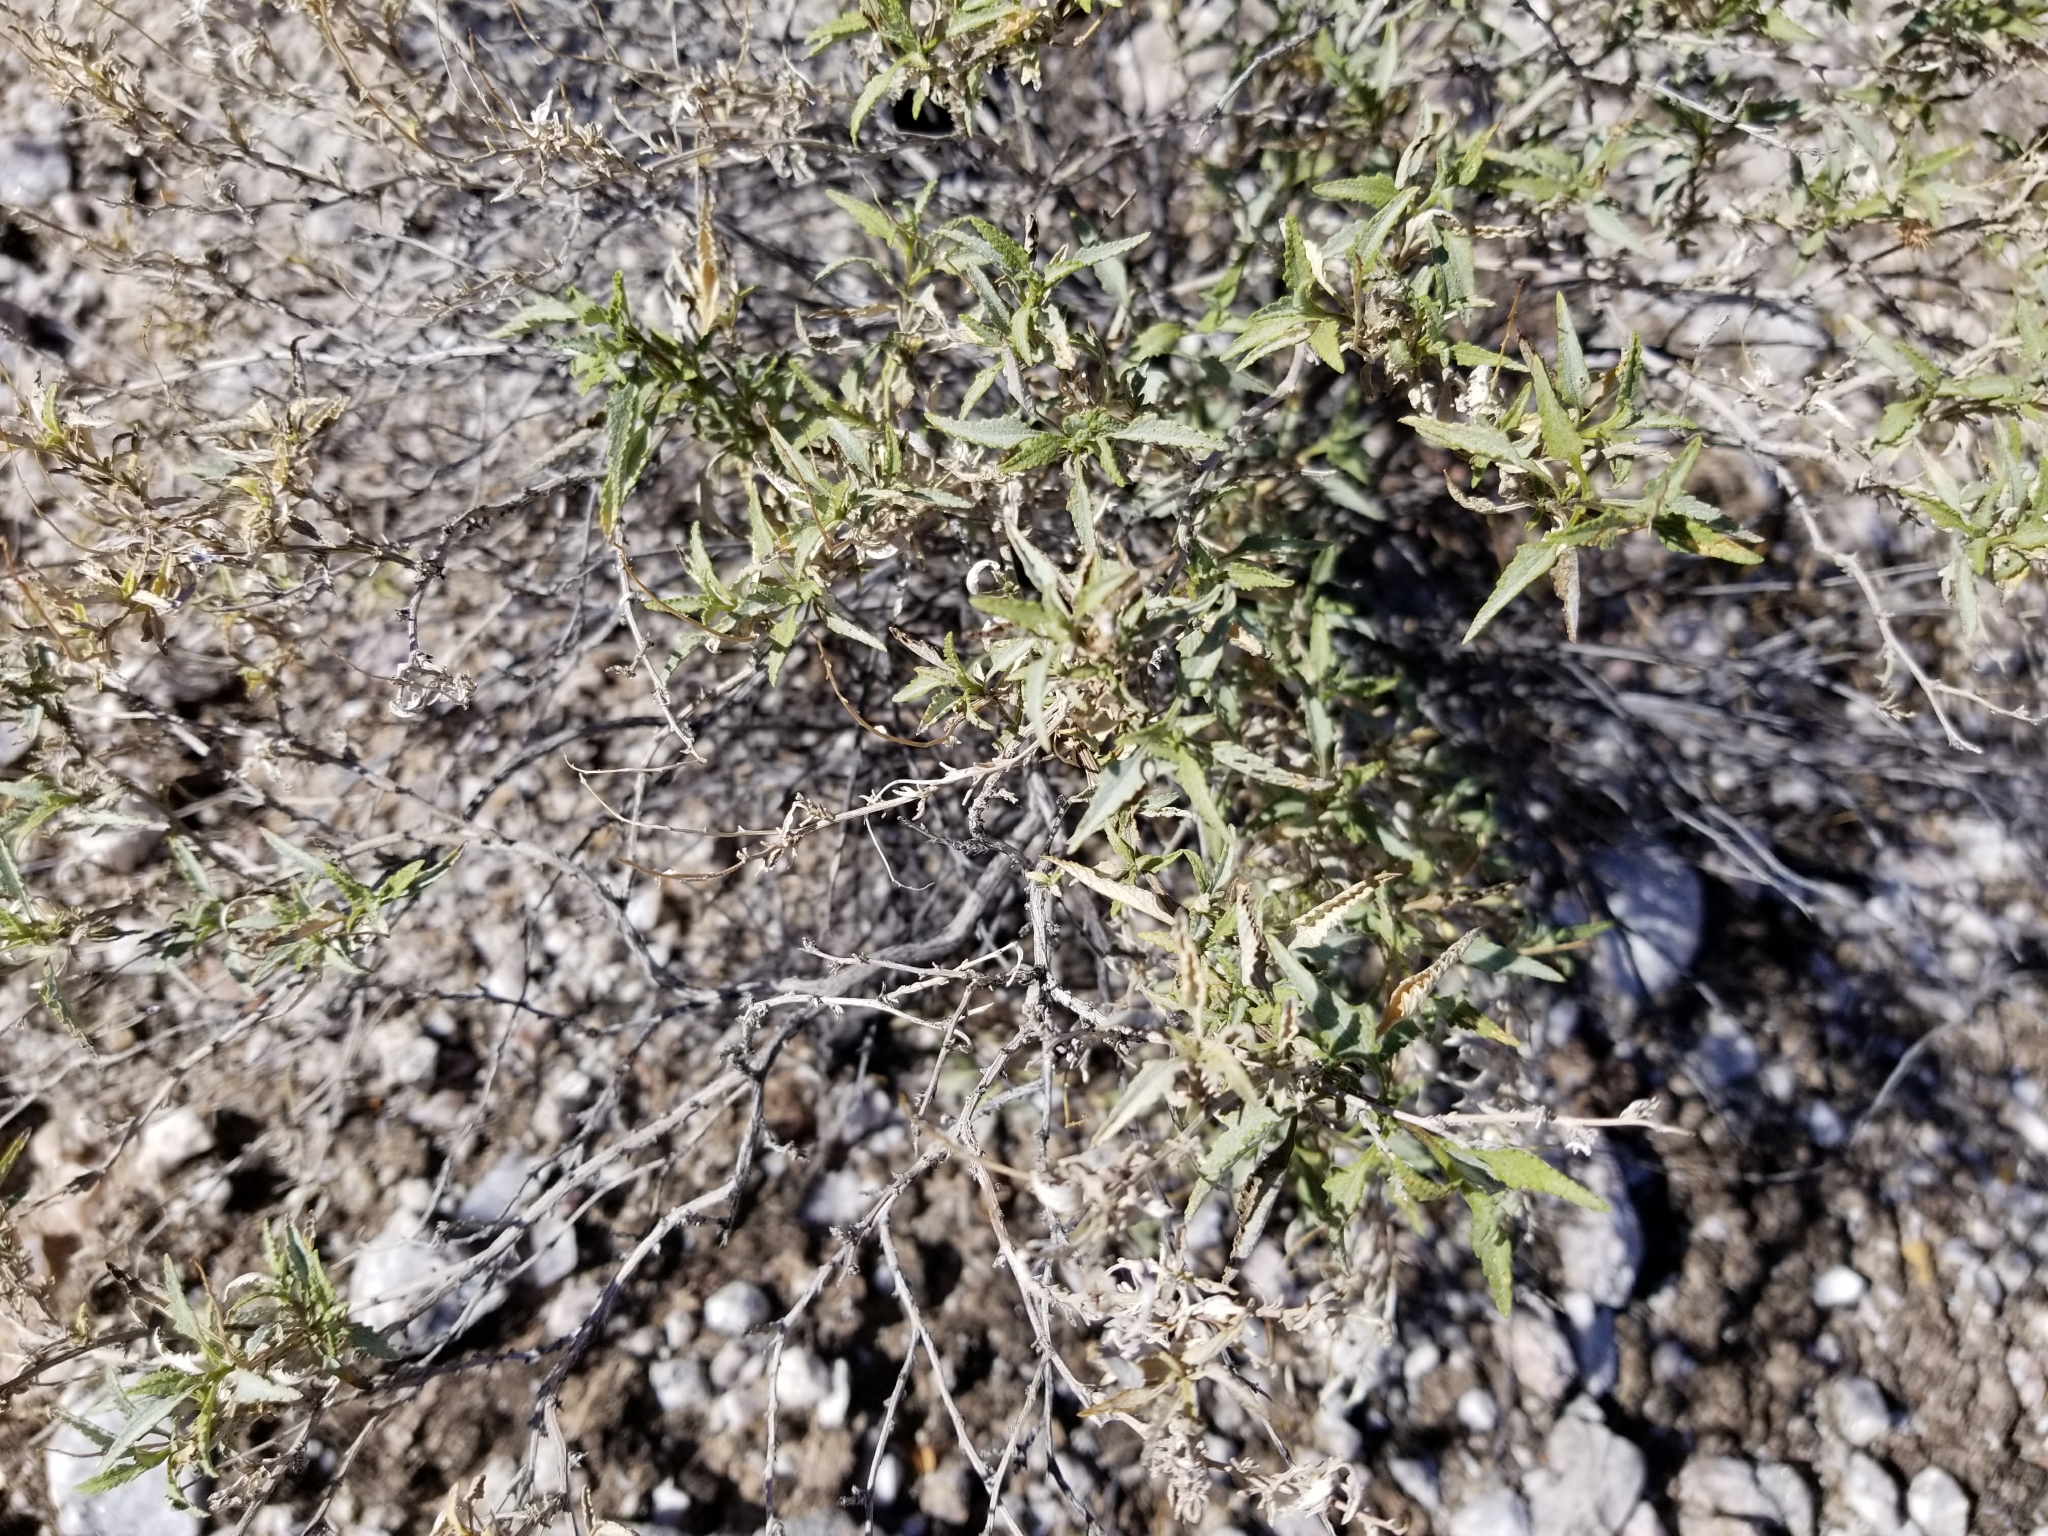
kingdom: Plantae
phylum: Tracheophyta
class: Magnoliopsida
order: Asterales
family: Asteraceae
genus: Ambrosia
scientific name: Ambrosia deltoidea
